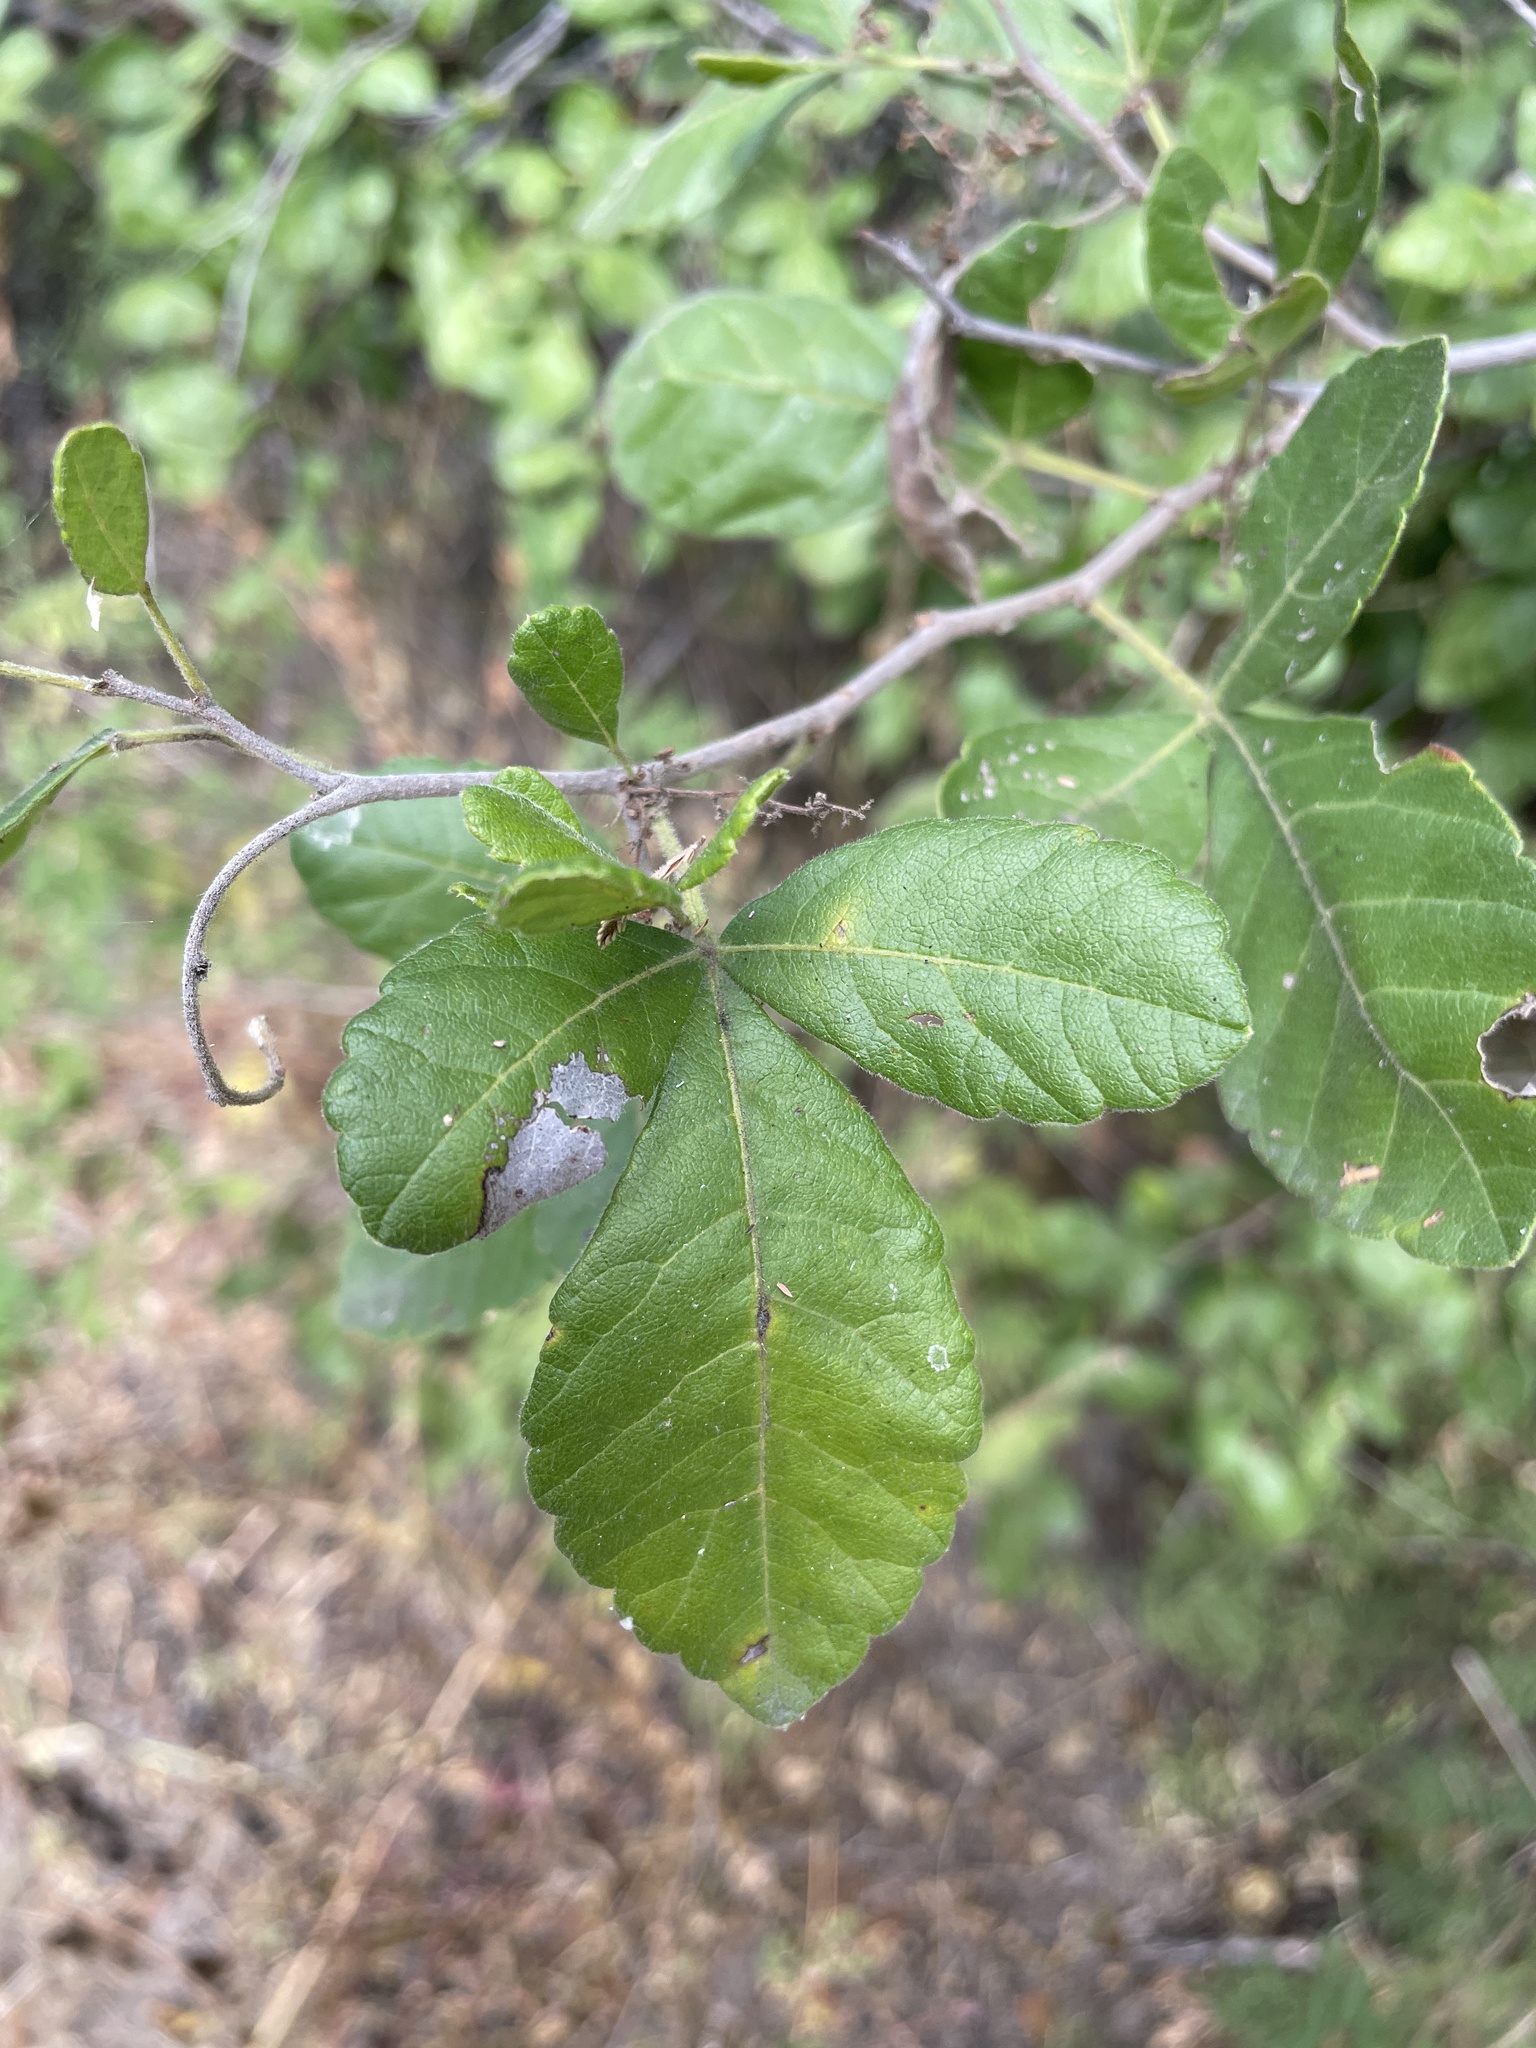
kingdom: Plantae
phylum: Tracheophyta
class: Magnoliopsida
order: Sapindales
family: Anacardiaceae
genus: Searsia
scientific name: Searsia tenuinervis
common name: Hyaena taaibos
